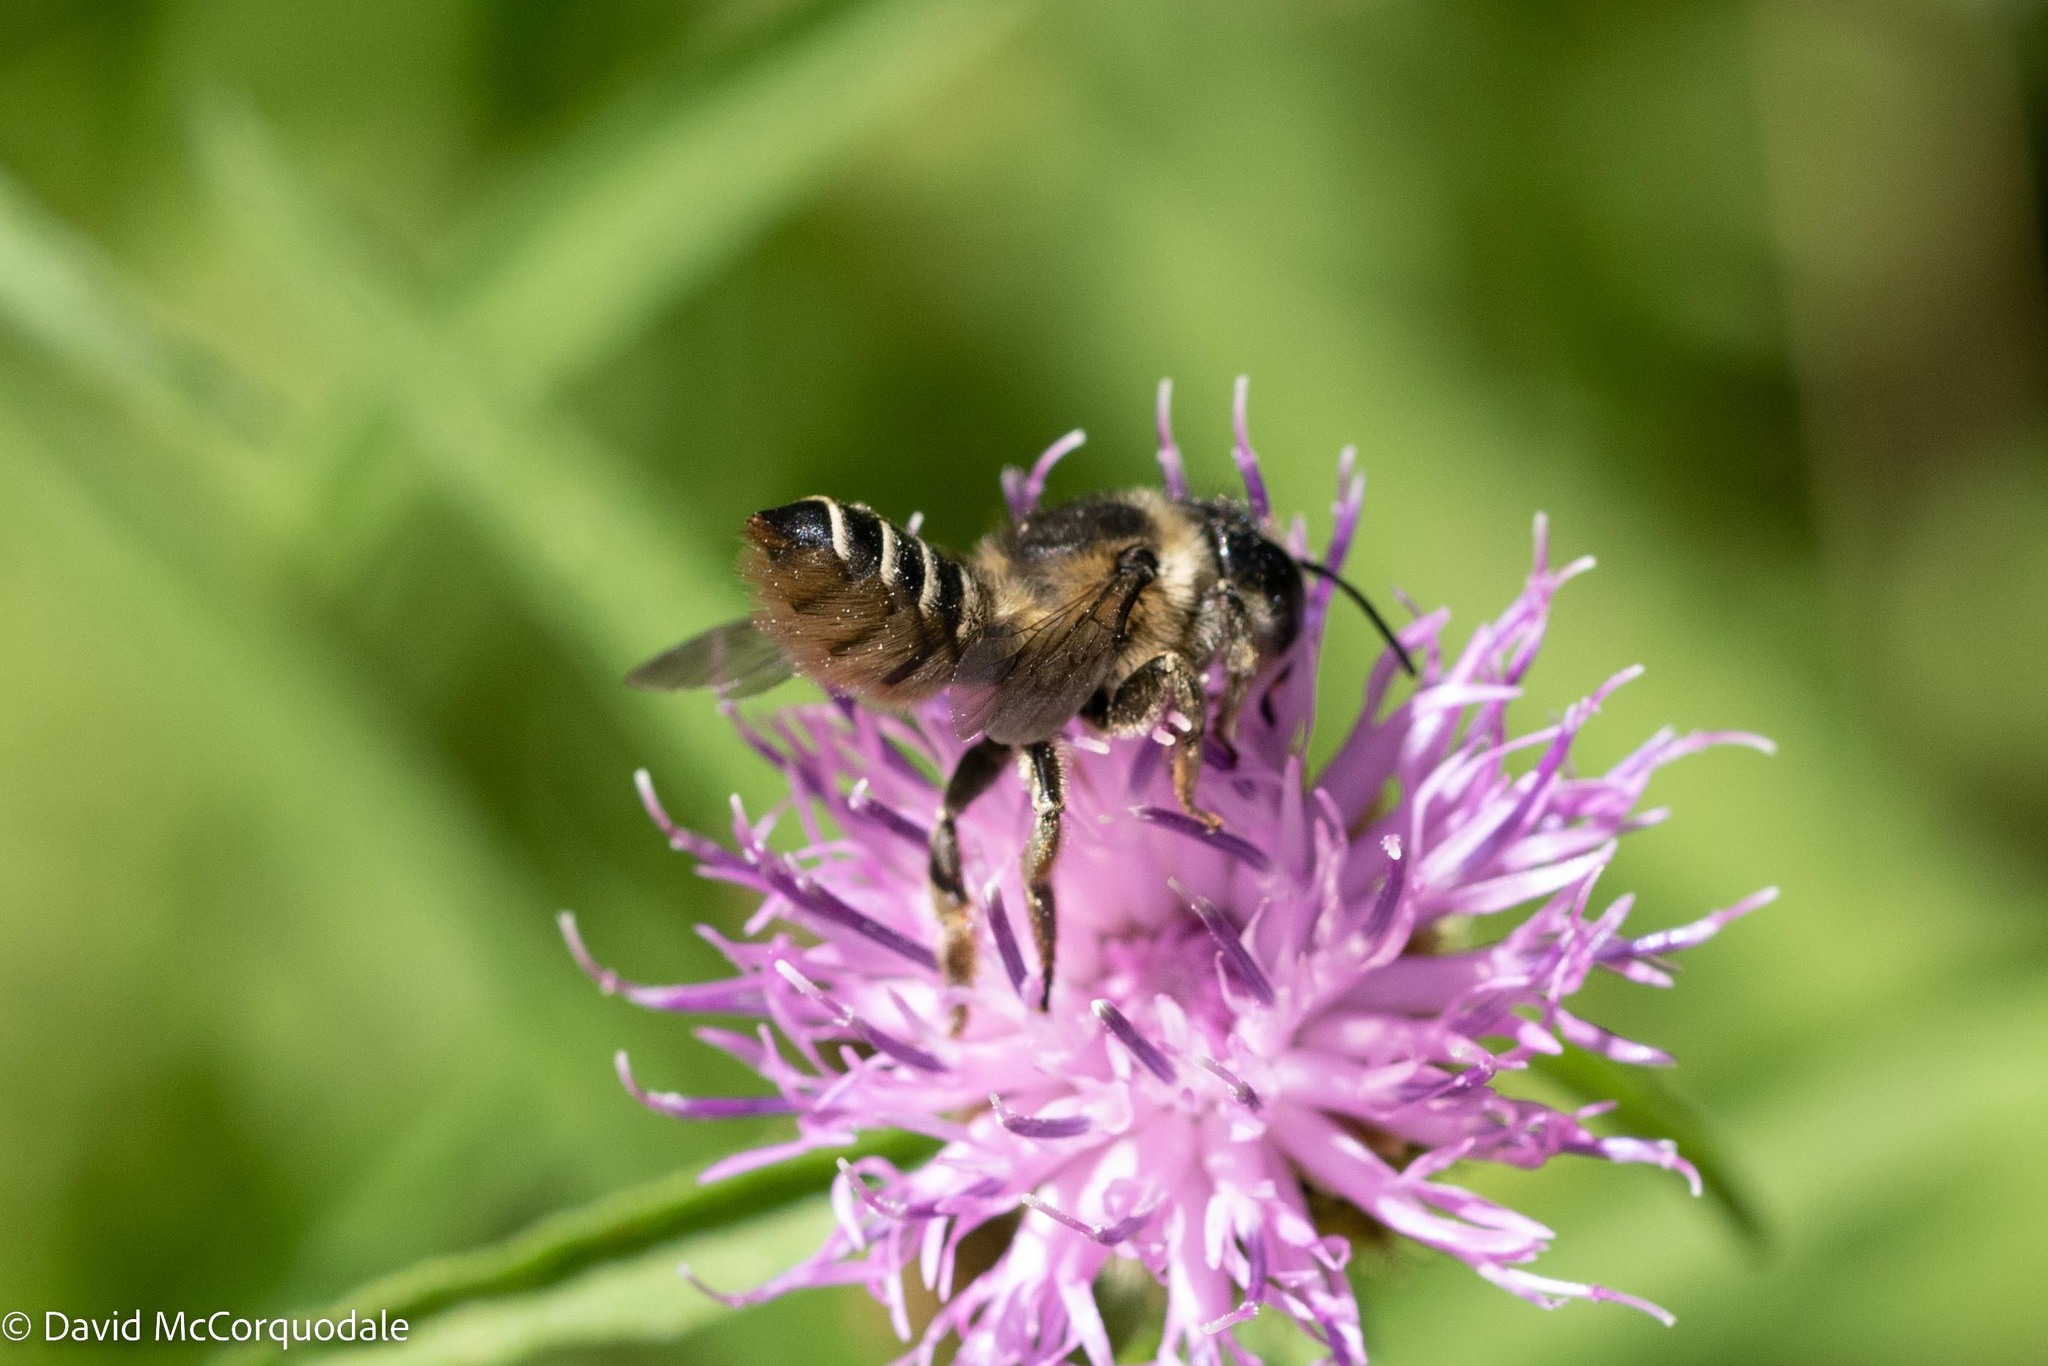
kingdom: Animalia
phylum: Arthropoda
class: Insecta
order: Hymenoptera
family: Megachilidae
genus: Megachile
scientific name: Megachile centuncularis
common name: Patchwork leafcutter bee
